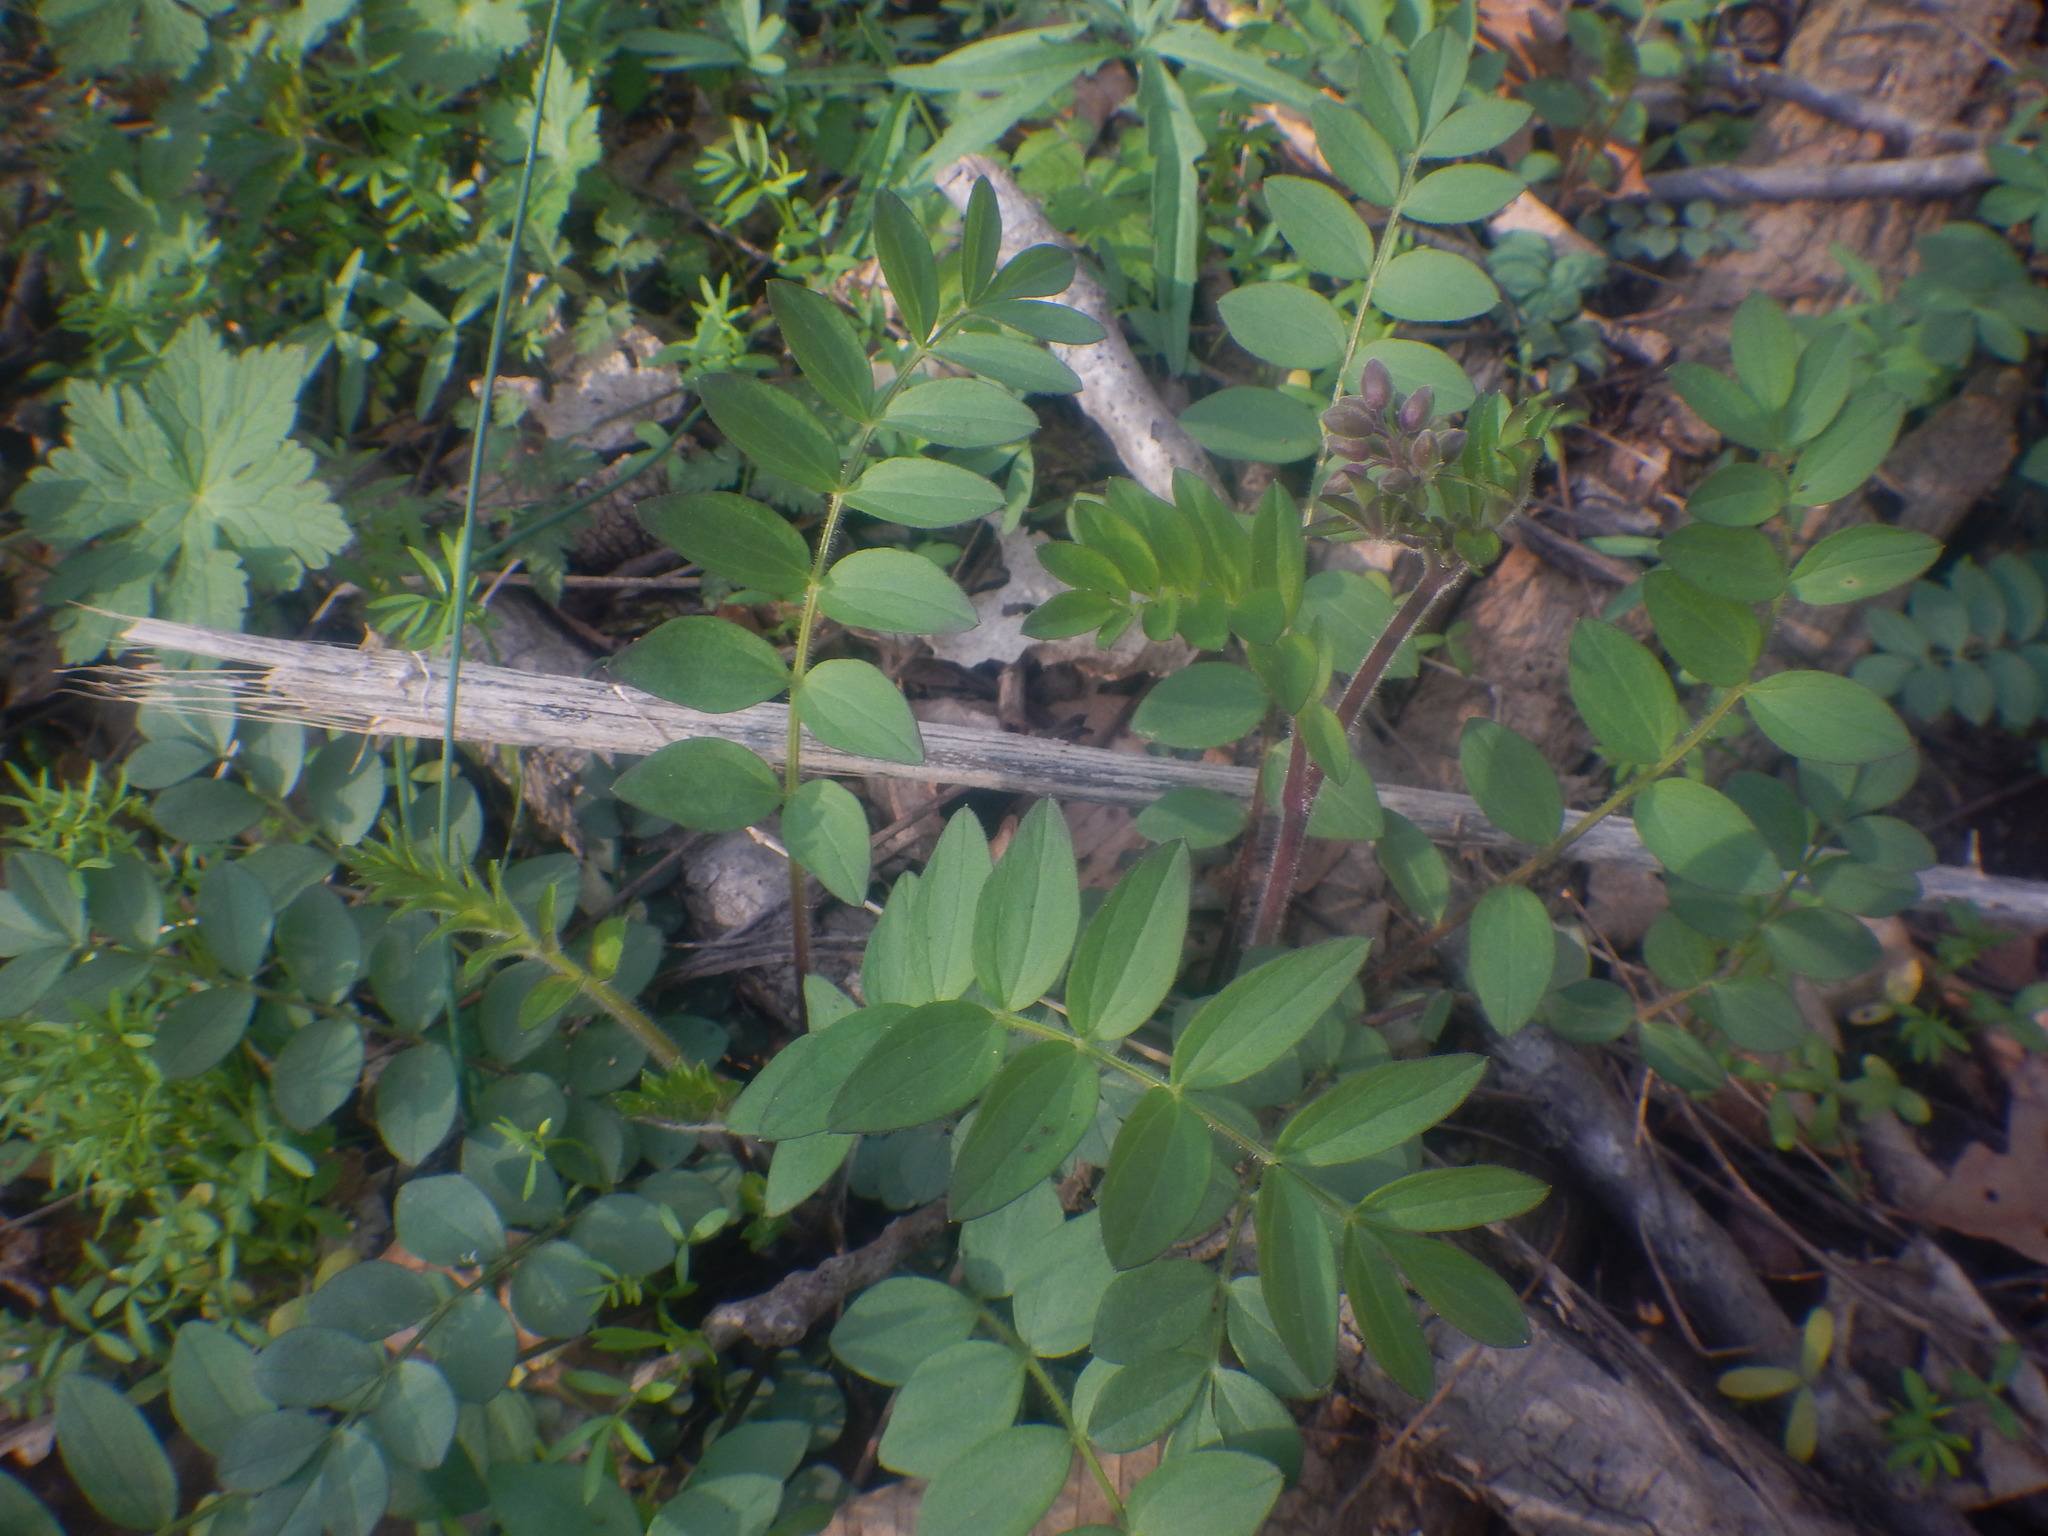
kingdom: Plantae
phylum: Tracheophyta
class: Magnoliopsida
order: Ericales
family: Polemoniaceae
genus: Polemonium
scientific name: Polemonium reptans
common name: Creeping jacob's-ladder
